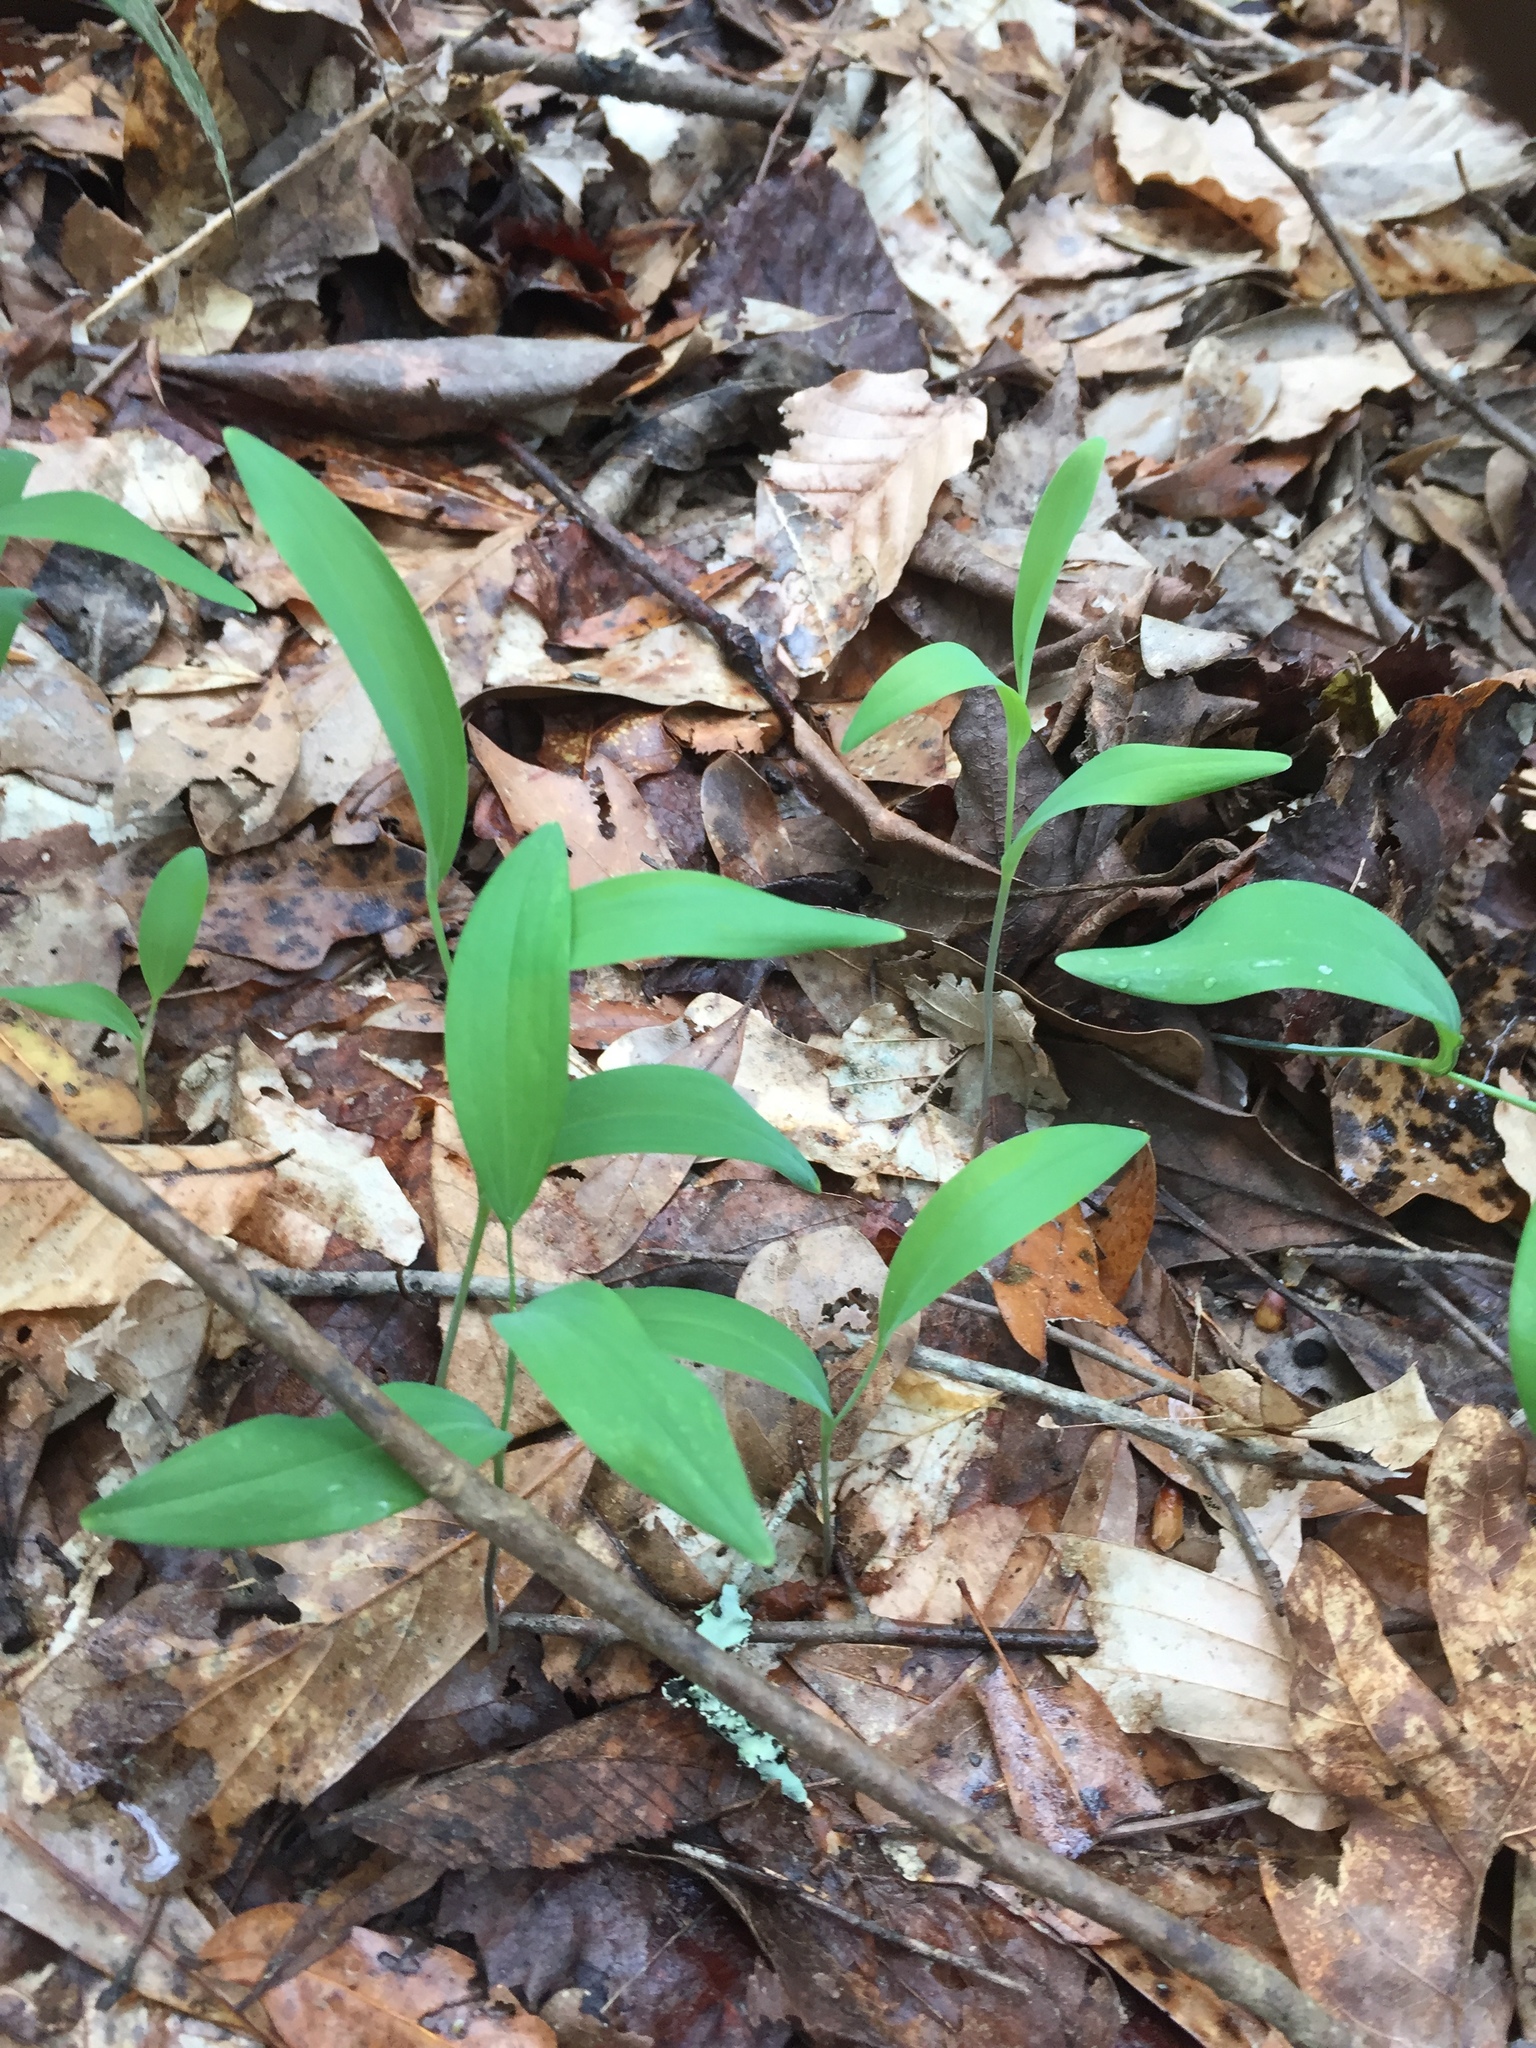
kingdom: Plantae
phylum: Tracheophyta
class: Liliopsida
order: Asparagales
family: Asparagaceae
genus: Polygonatum
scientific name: Polygonatum biflorum
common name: American solomon's-seal
